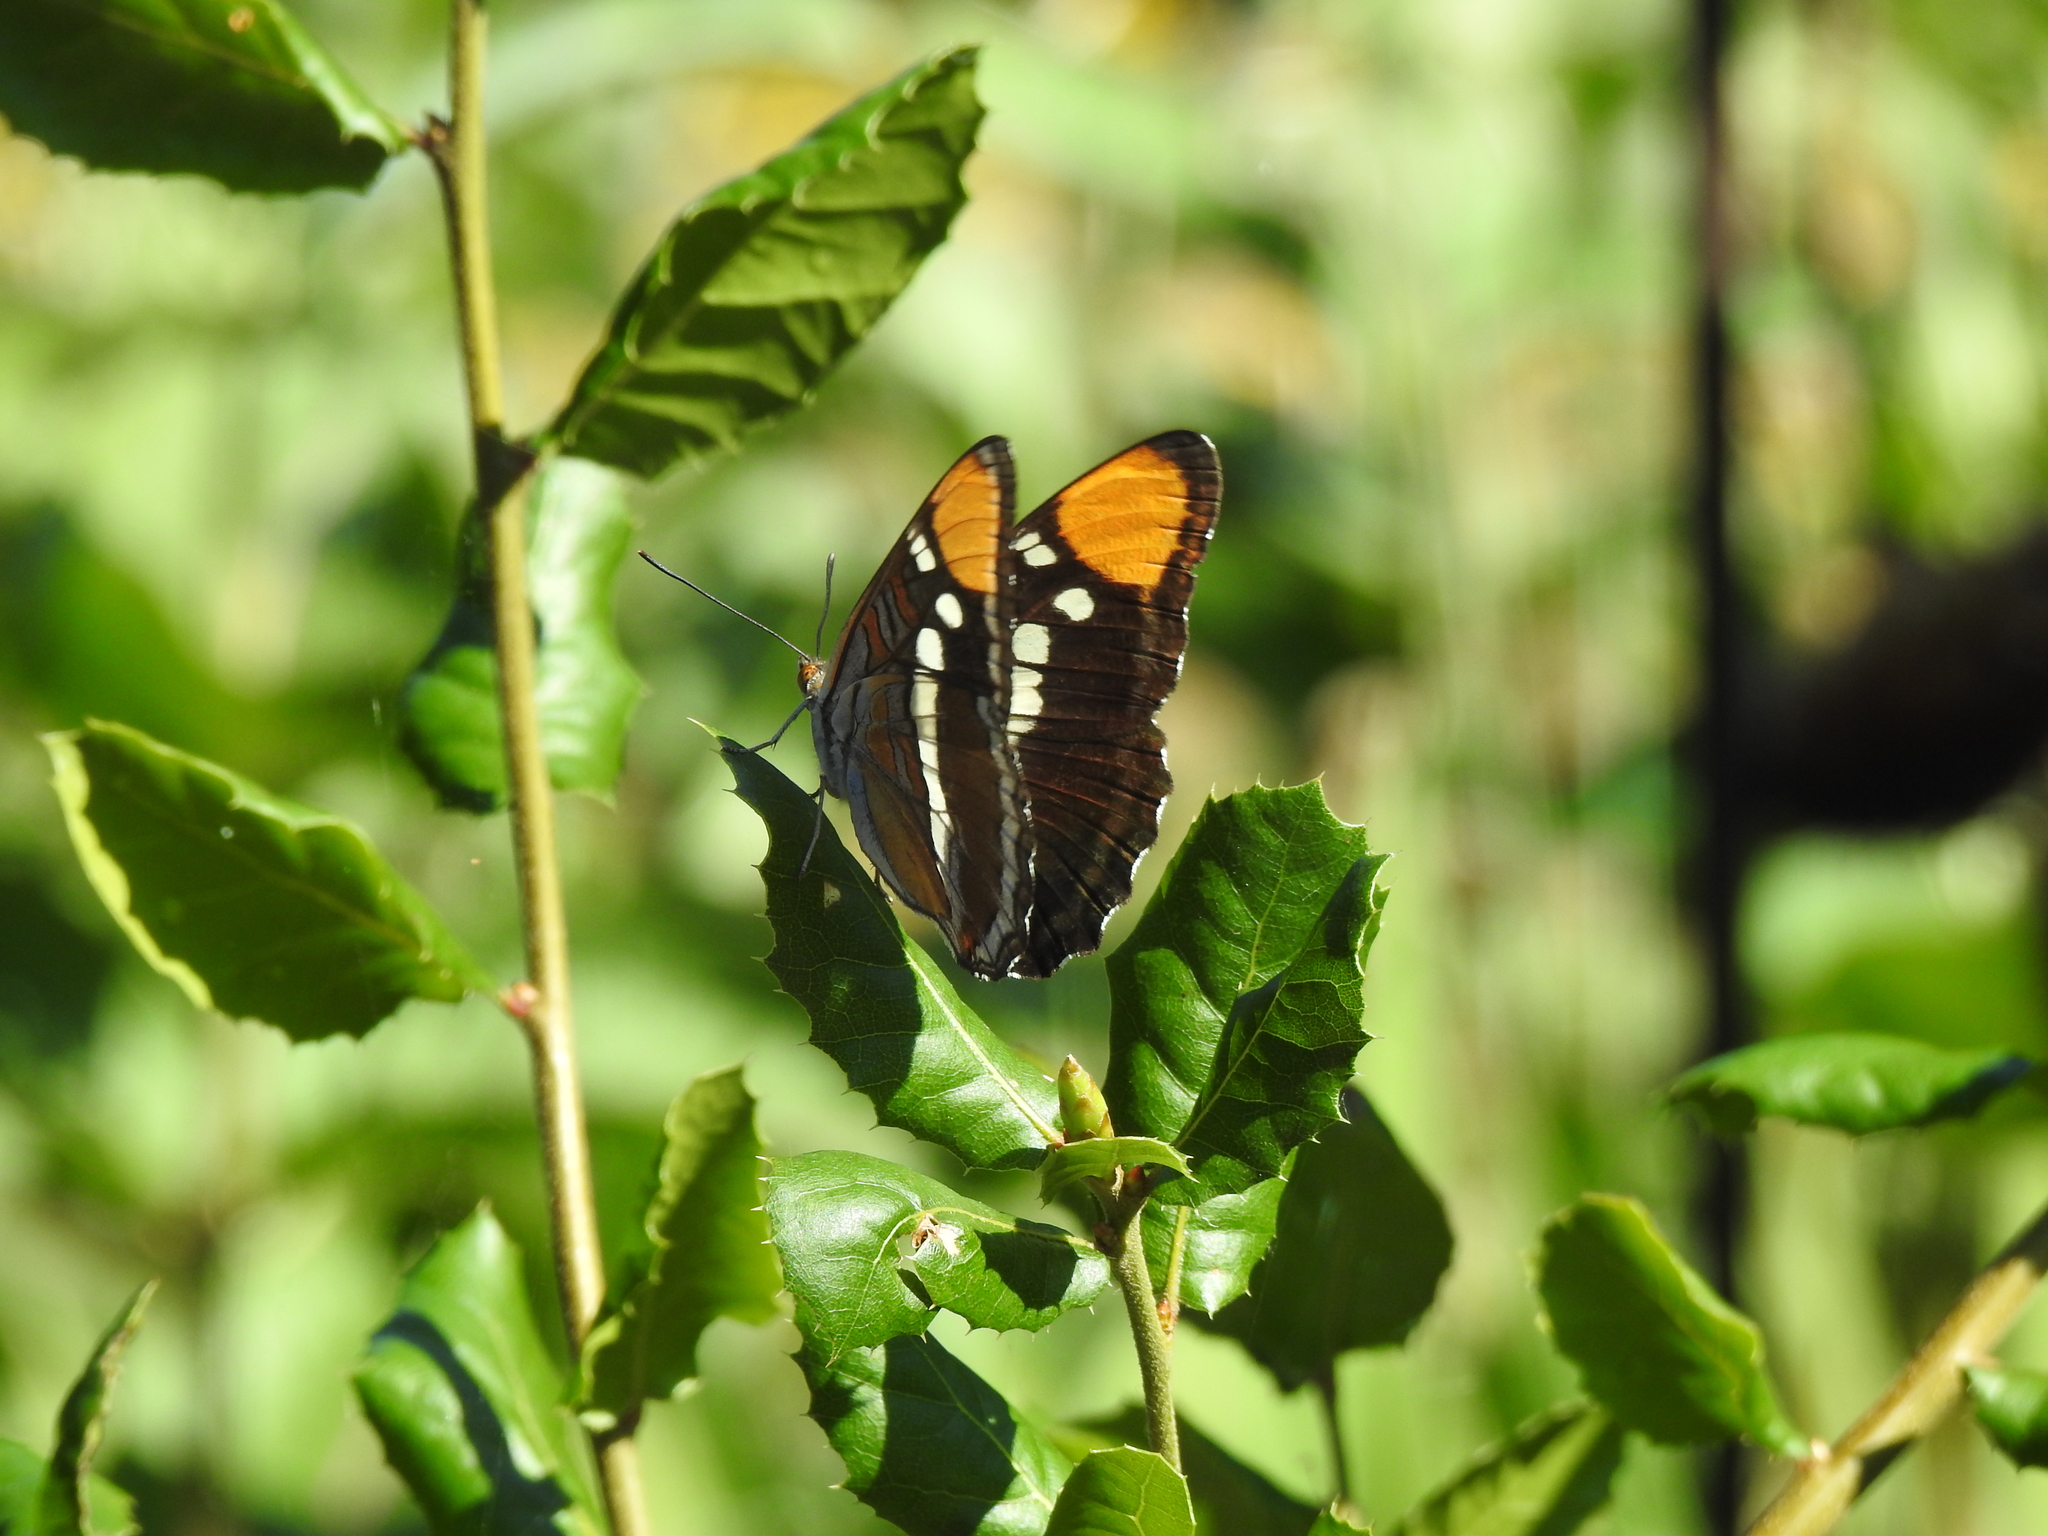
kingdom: Animalia
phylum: Arthropoda
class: Insecta
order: Lepidoptera
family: Nymphalidae
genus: Limenitis
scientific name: Limenitis bredowii
